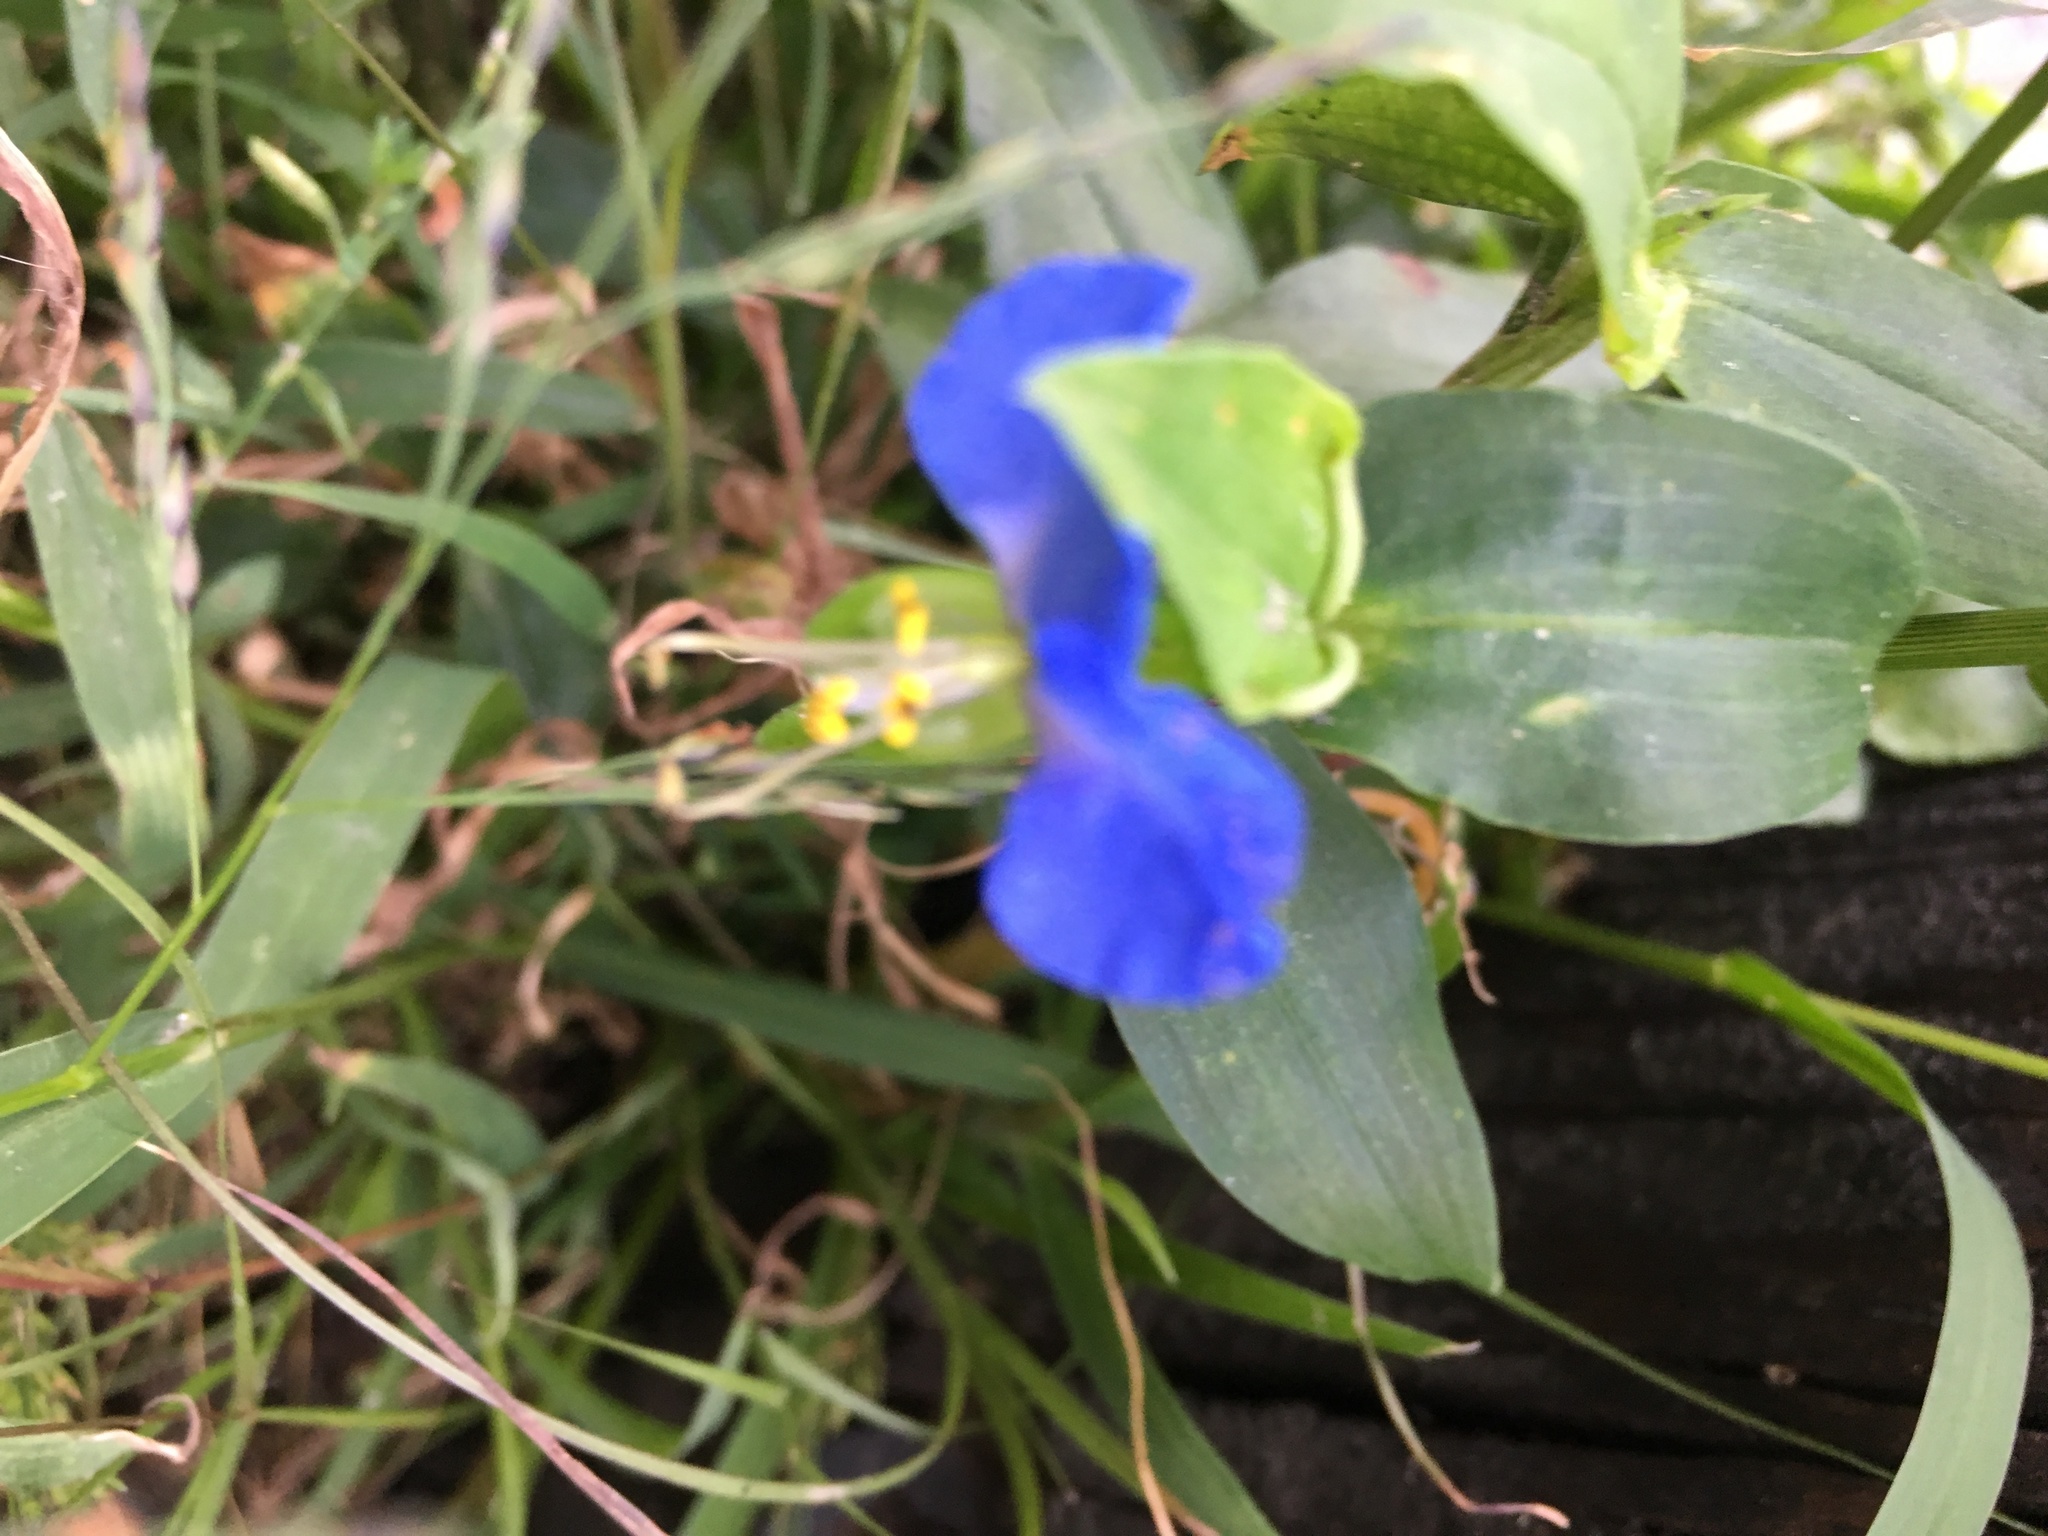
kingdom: Plantae
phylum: Tracheophyta
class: Liliopsida
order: Commelinales
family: Commelinaceae
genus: Commelina
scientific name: Commelina communis
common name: Asiatic dayflower
